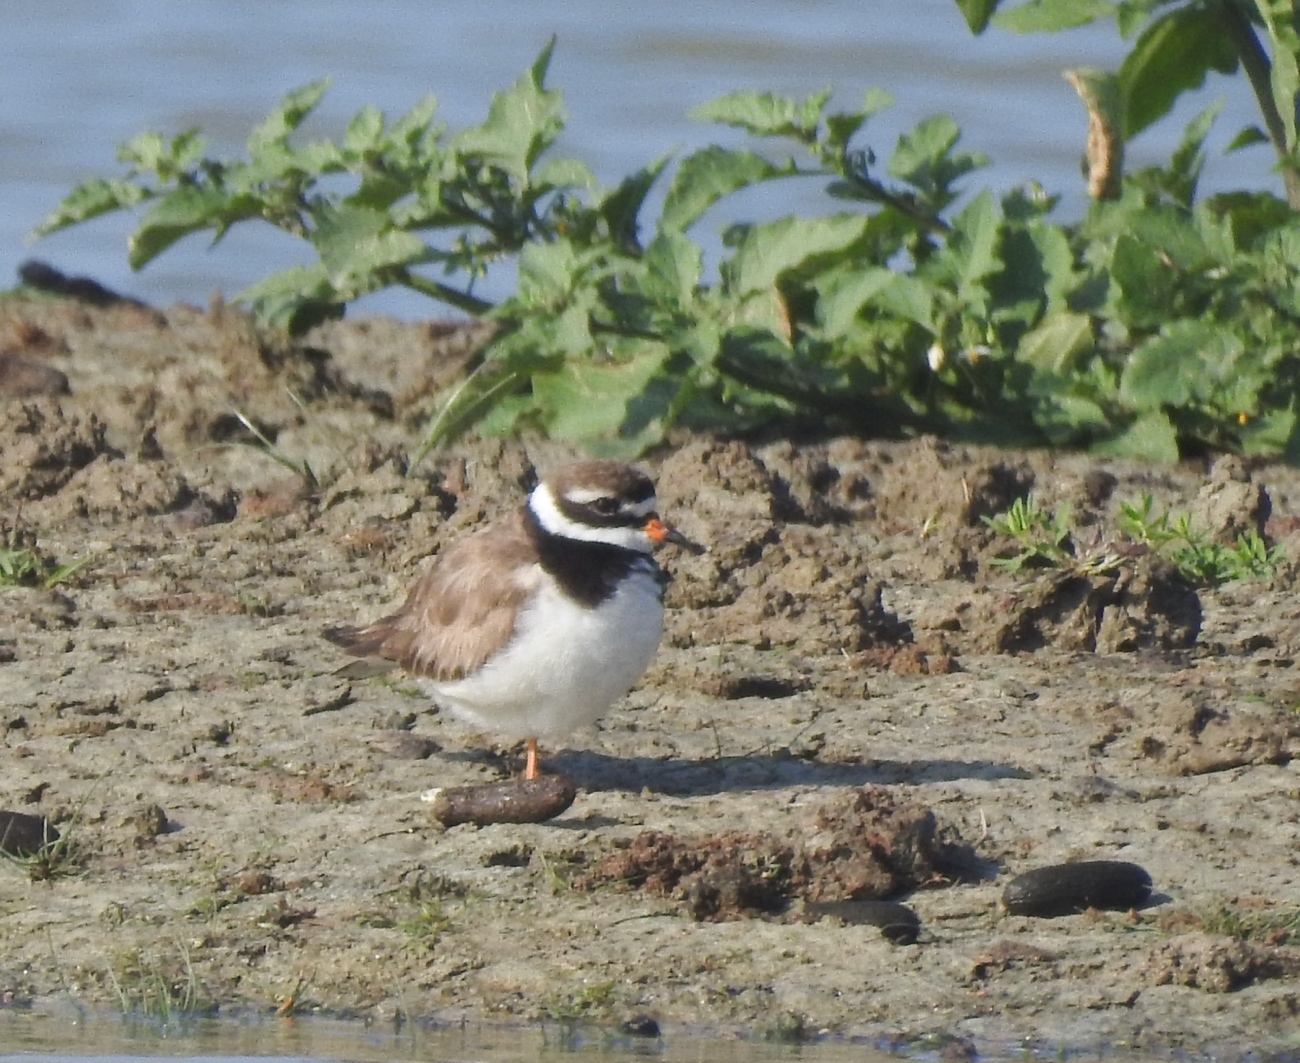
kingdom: Animalia
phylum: Chordata
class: Aves
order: Charadriiformes
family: Charadriidae
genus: Charadrius
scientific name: Charadrius hiaticula
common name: Common ringed plover
